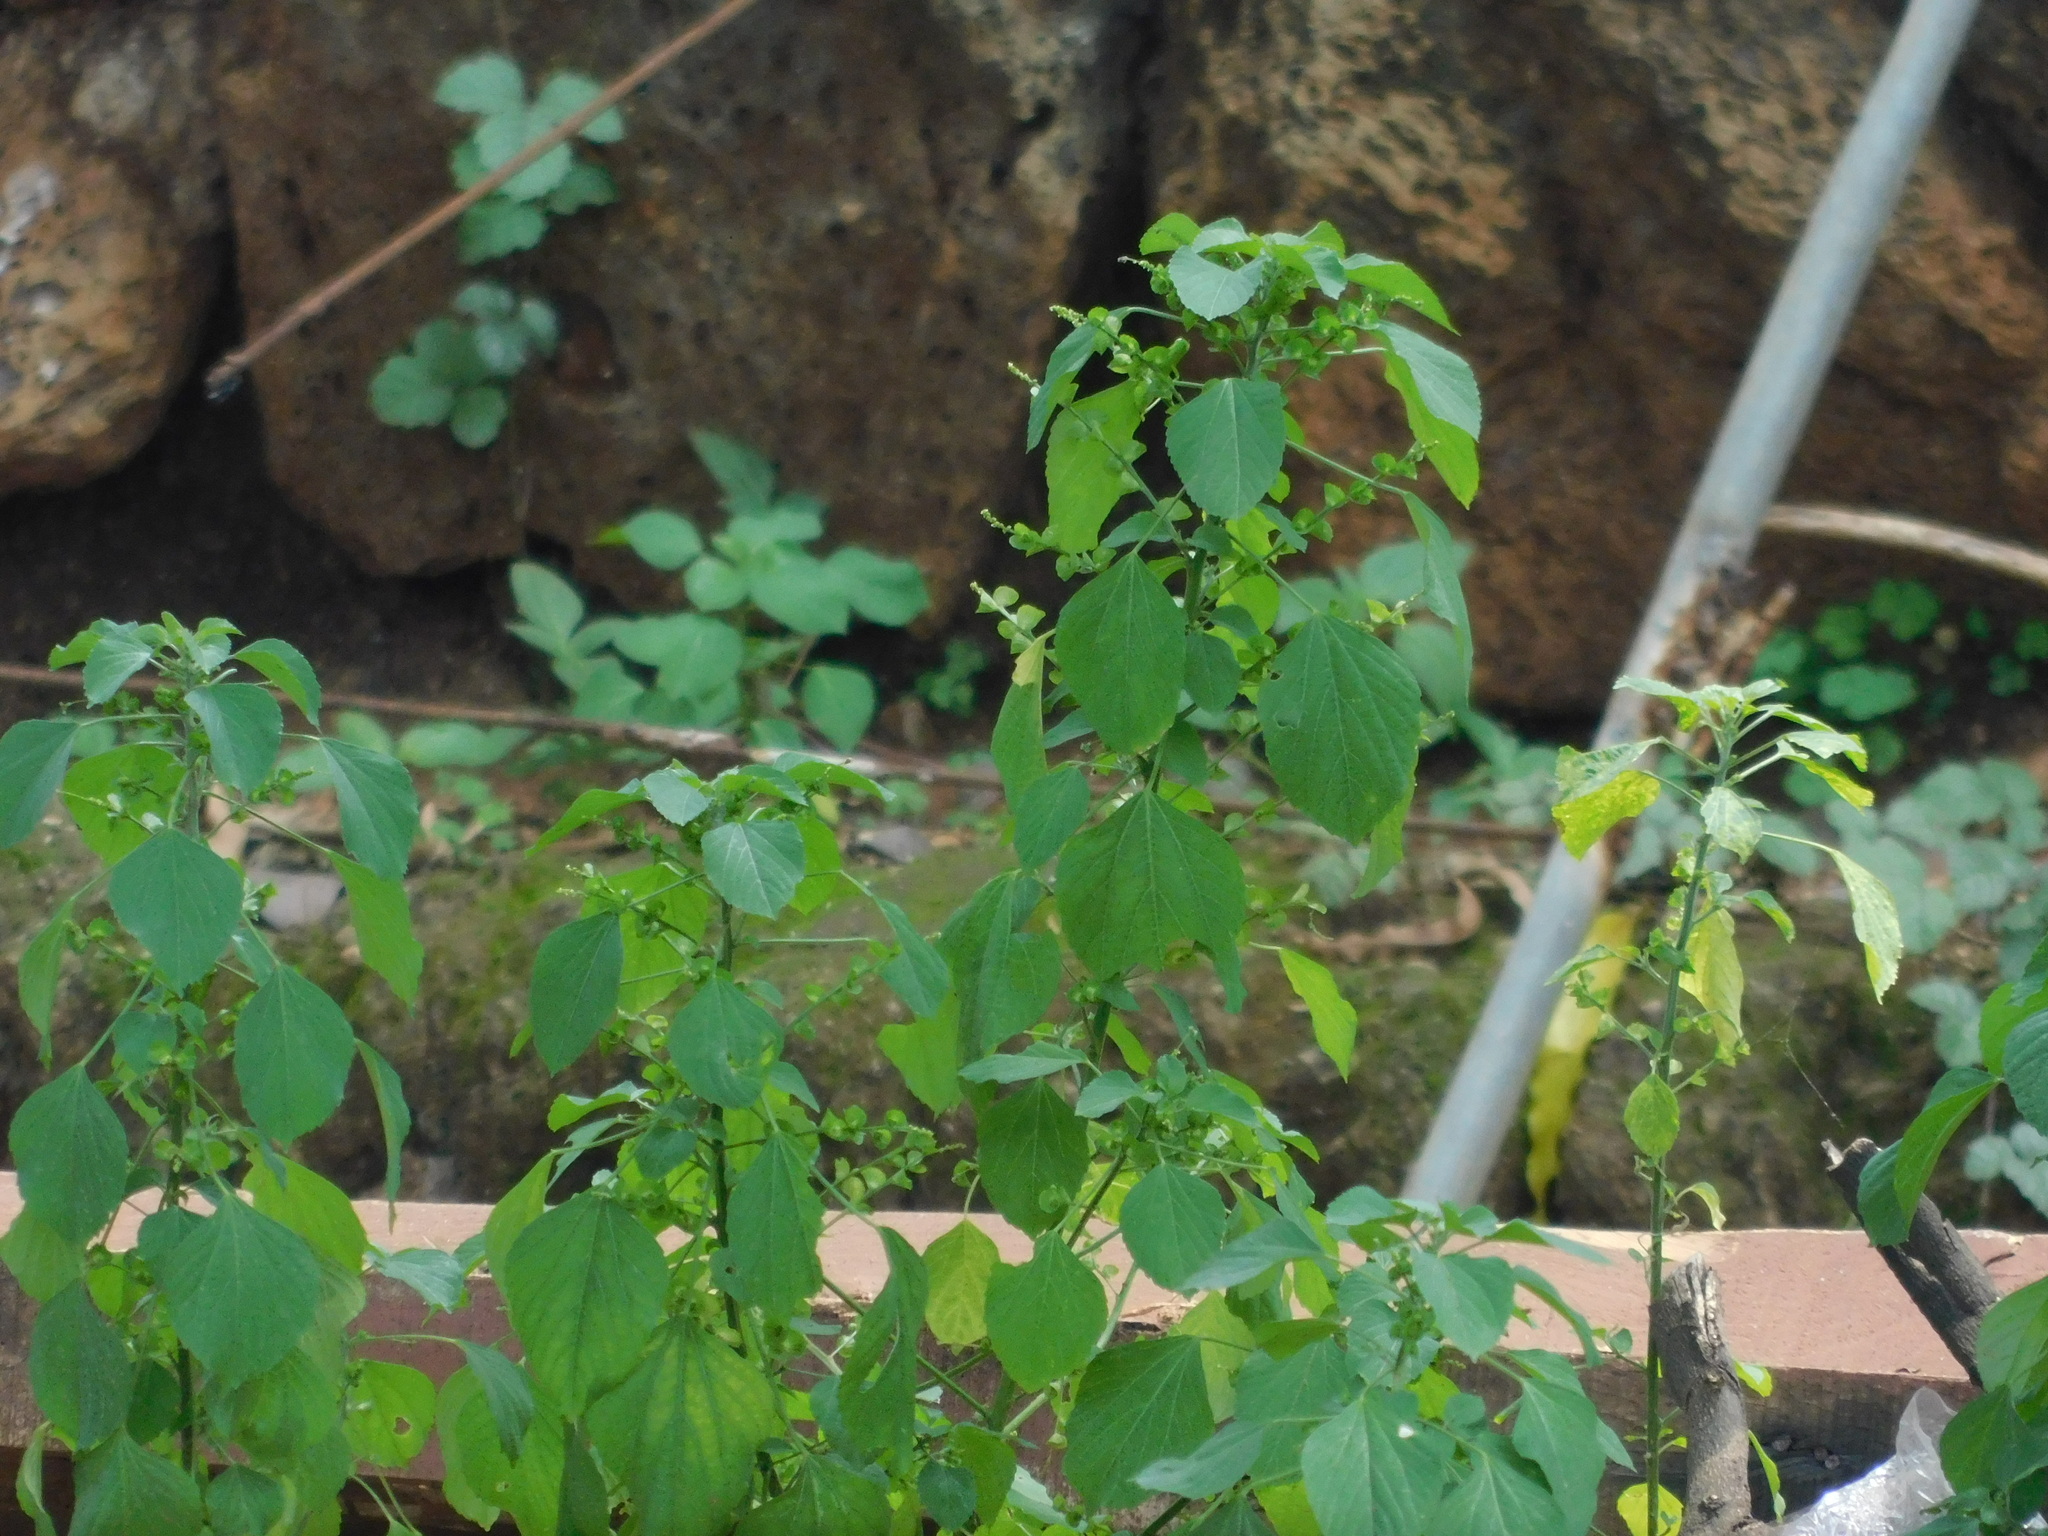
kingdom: Plantae
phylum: Tracheophyta
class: Magnoliopsida
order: Malpighiales
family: Euphorbiaceae
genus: Acalypha
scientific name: Acalypha indica
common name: Indian acalypha
